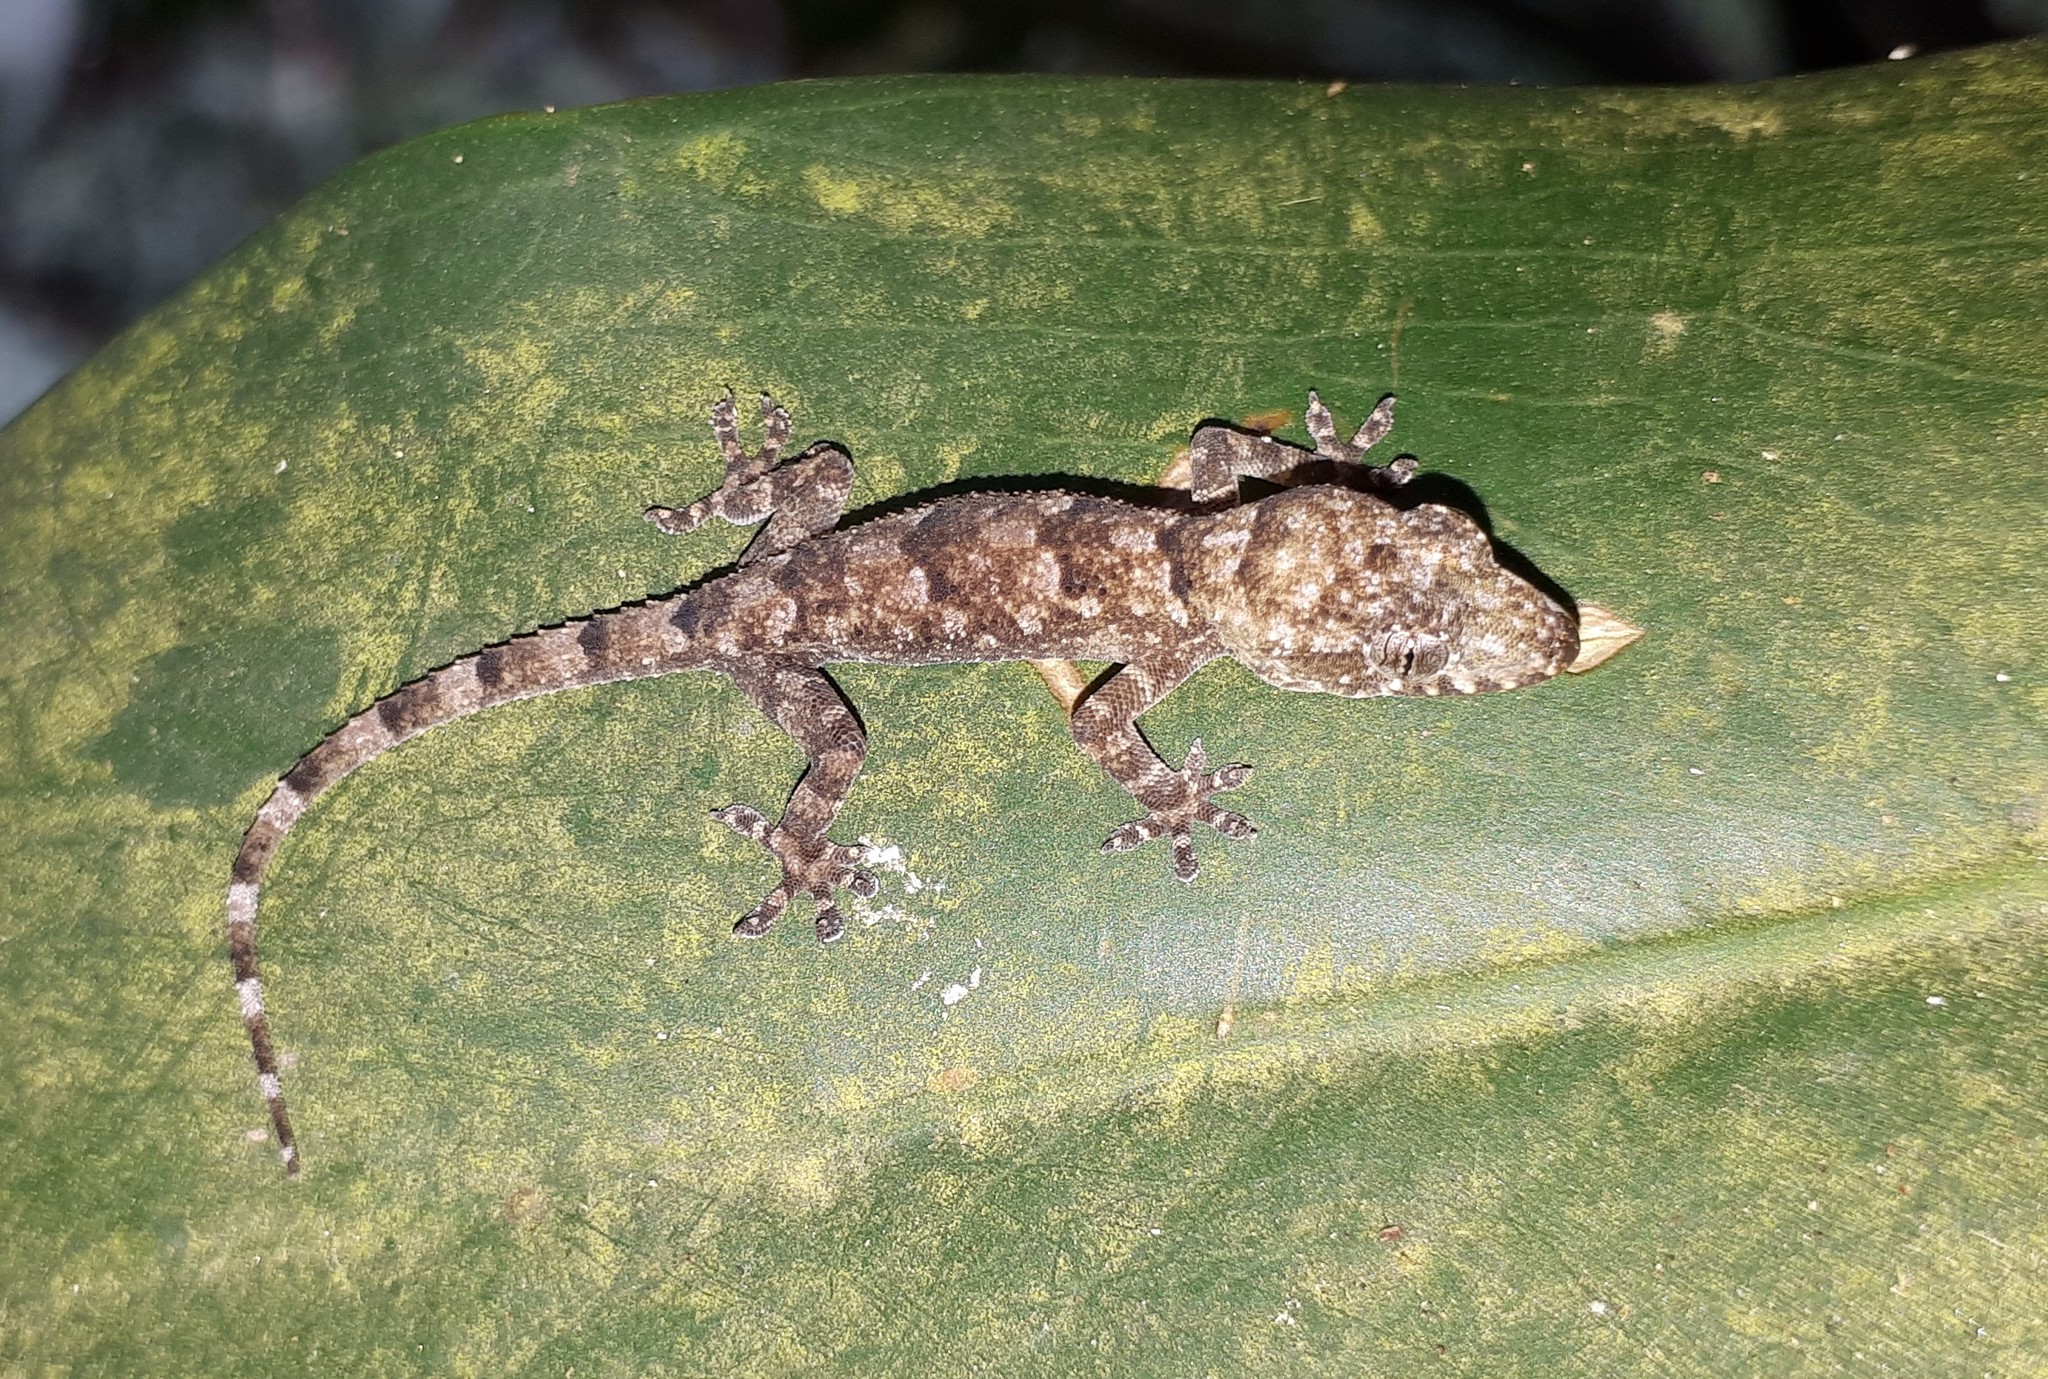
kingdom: Animalia
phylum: Chordata
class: Squamata
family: Gekkonidae
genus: Hemidactylus
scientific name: Hemidactylus mabouia
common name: House gecko
